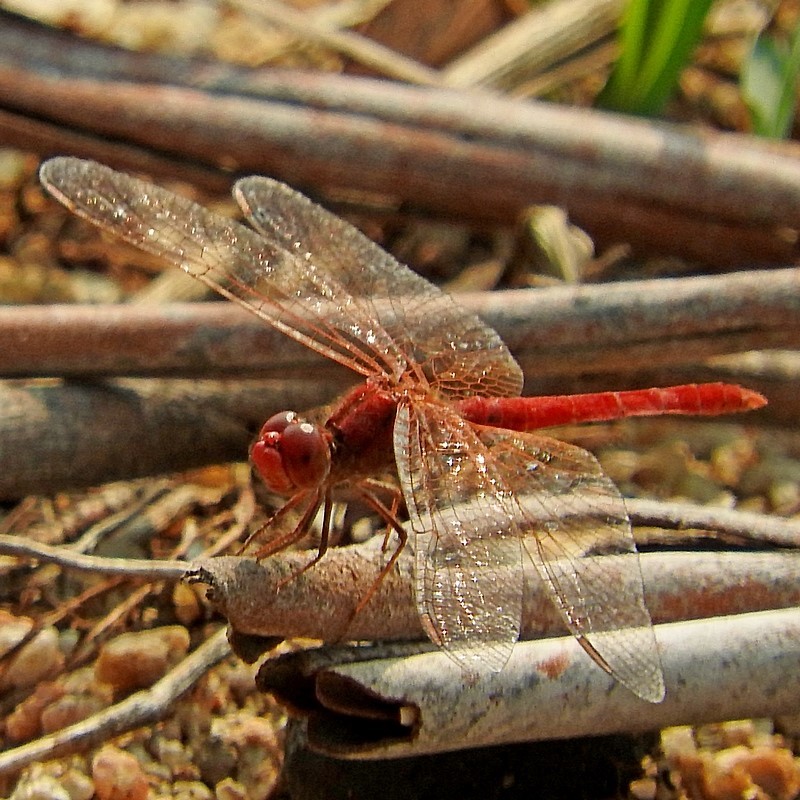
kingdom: Animalia
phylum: Arthropoda
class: Insecta
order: Odonata
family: Libellulidae
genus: Diplacodes
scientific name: Diplacodes haematodes
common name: Scarlet percher
